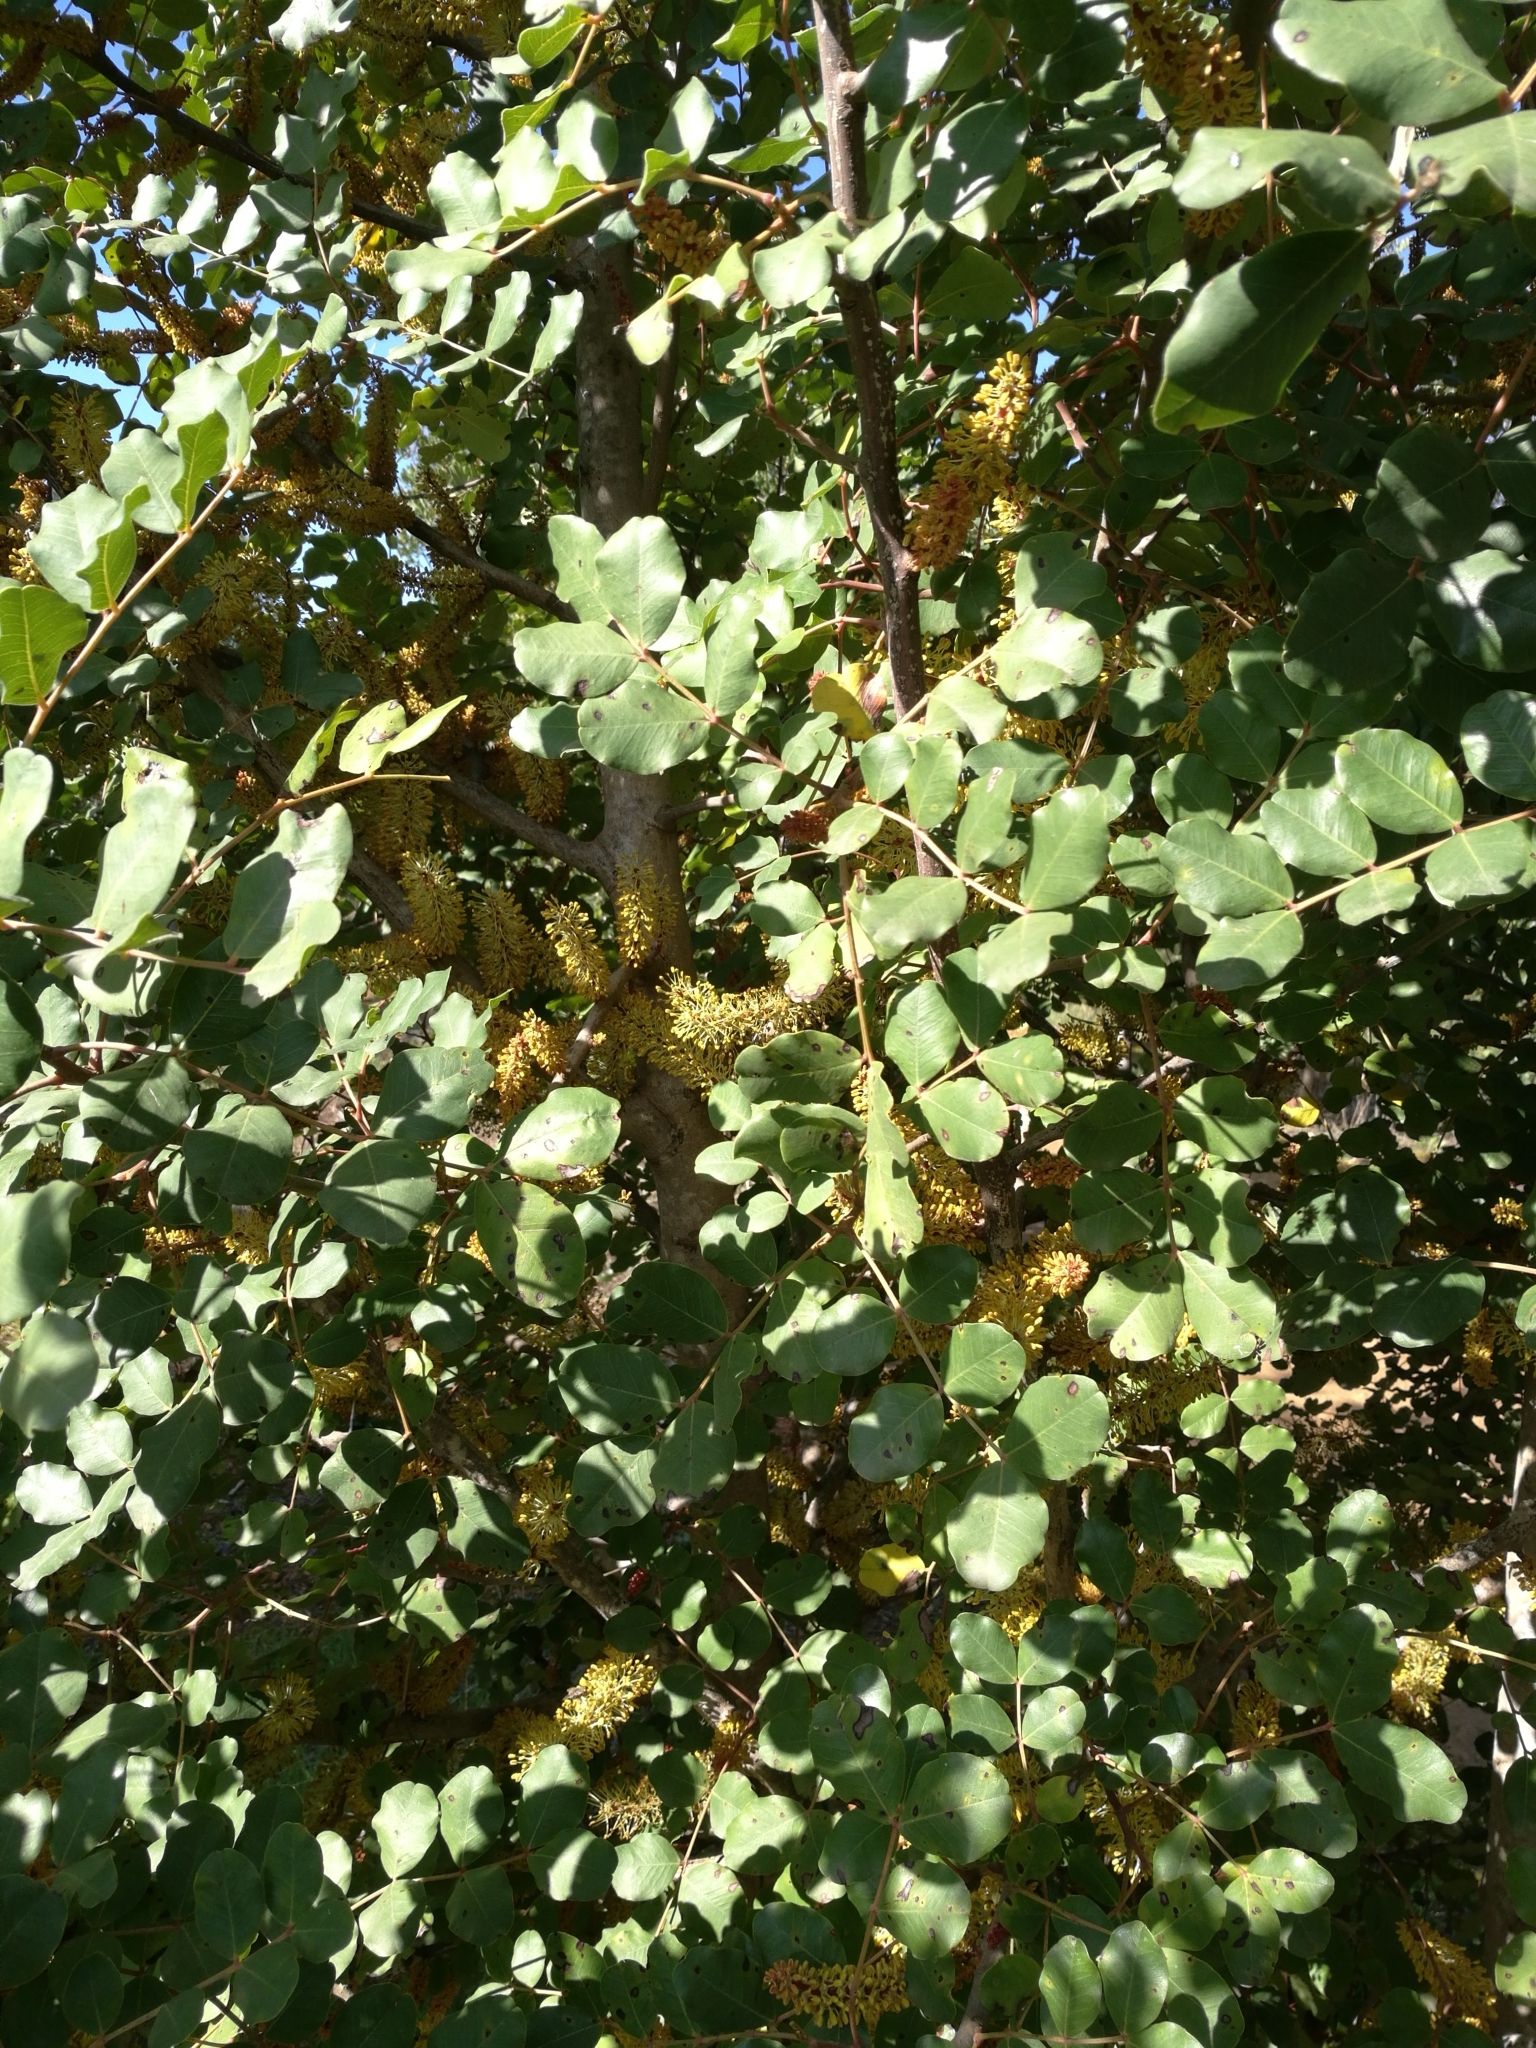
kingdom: Plantae
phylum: Tracheophyta
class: Magnoliopsida
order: Fabales
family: Fabaceae
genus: Ceratonia
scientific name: Ceratonia siliqua
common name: Carob
